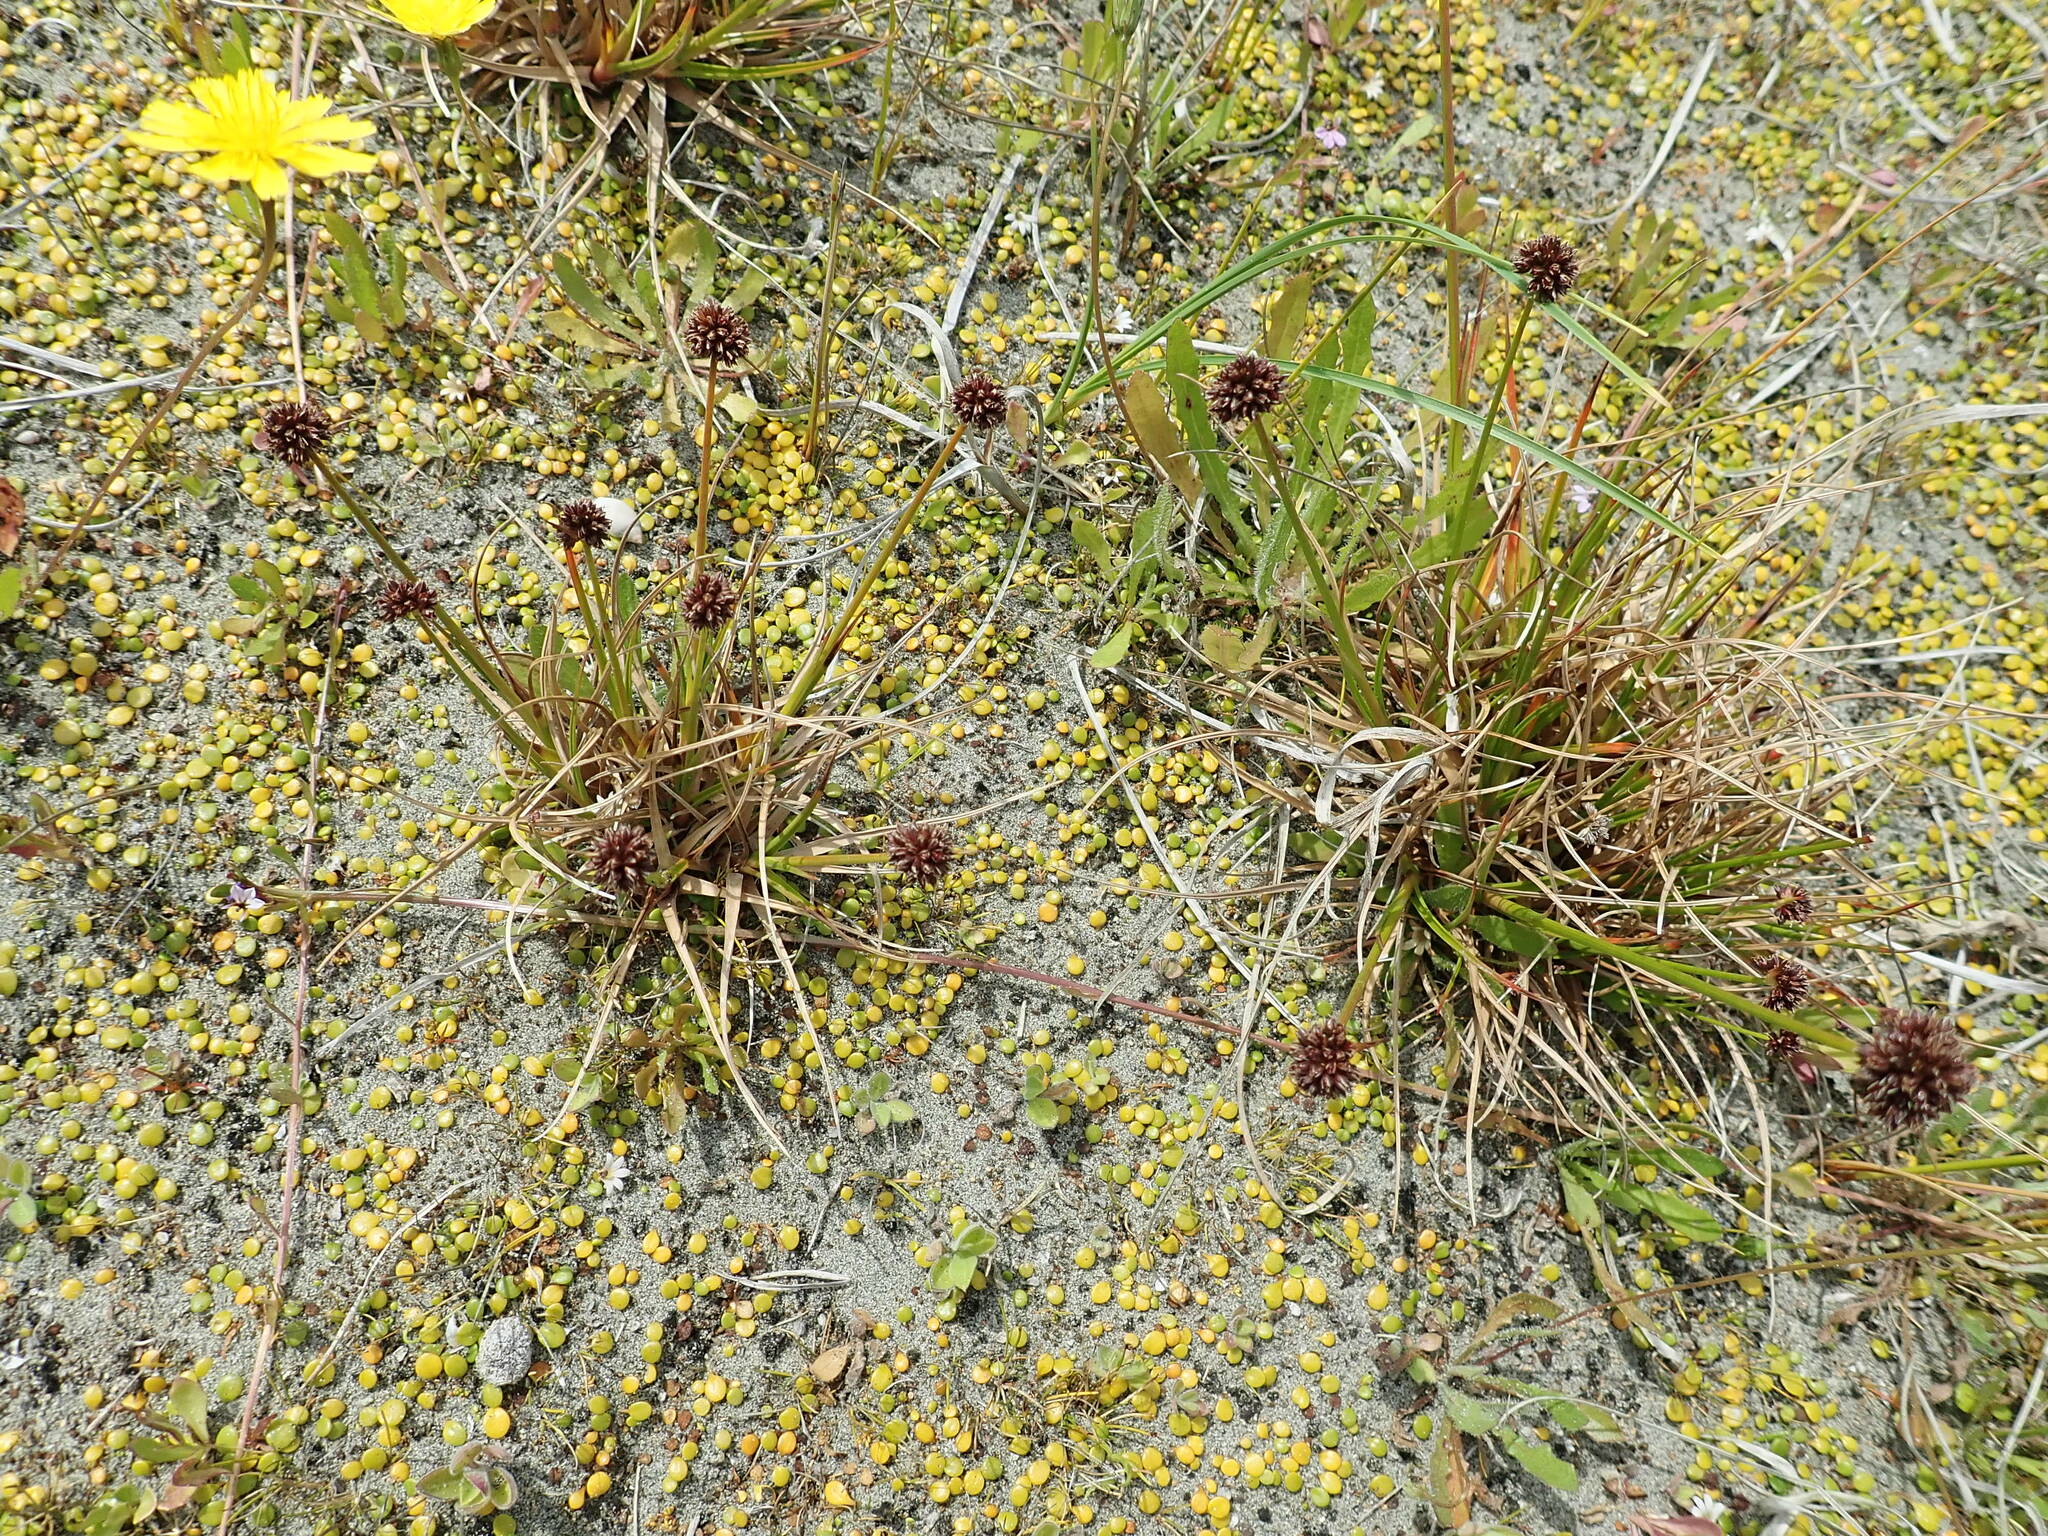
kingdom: Plantae
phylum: Tracheophyta
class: Liliopsida
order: Poales
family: Juncaceae
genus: Juncus
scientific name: Juncus caespiticius
